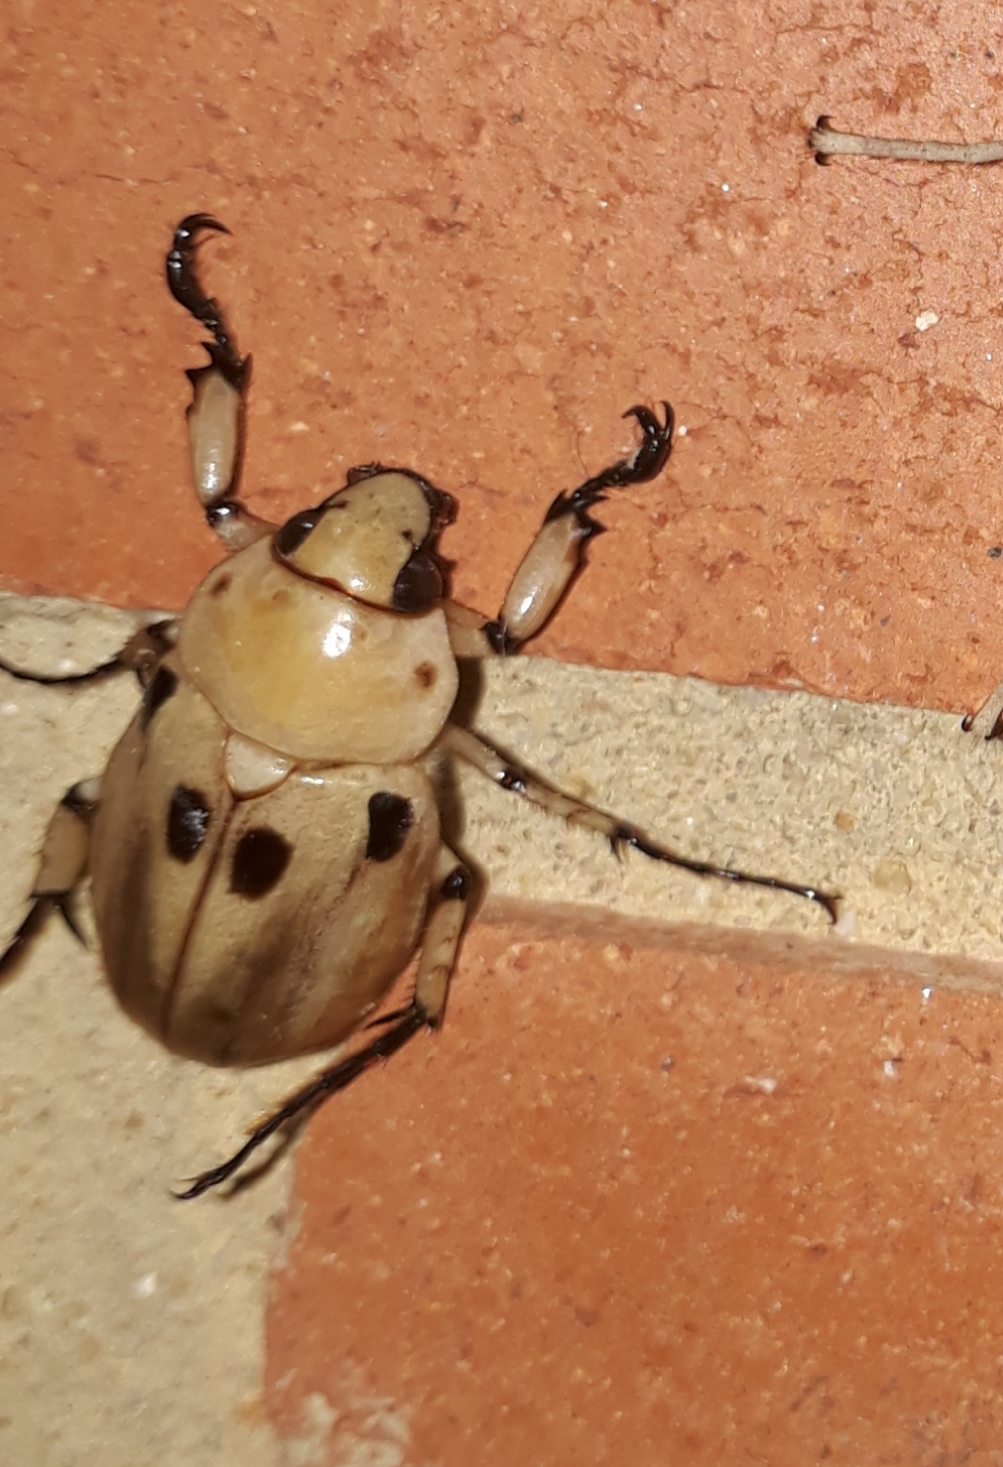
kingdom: Animalia
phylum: Arthropoda
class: Insecta
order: Coleoptera
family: Scarabaeidae
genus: Ancognatha
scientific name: Ancognatha vulgaris
